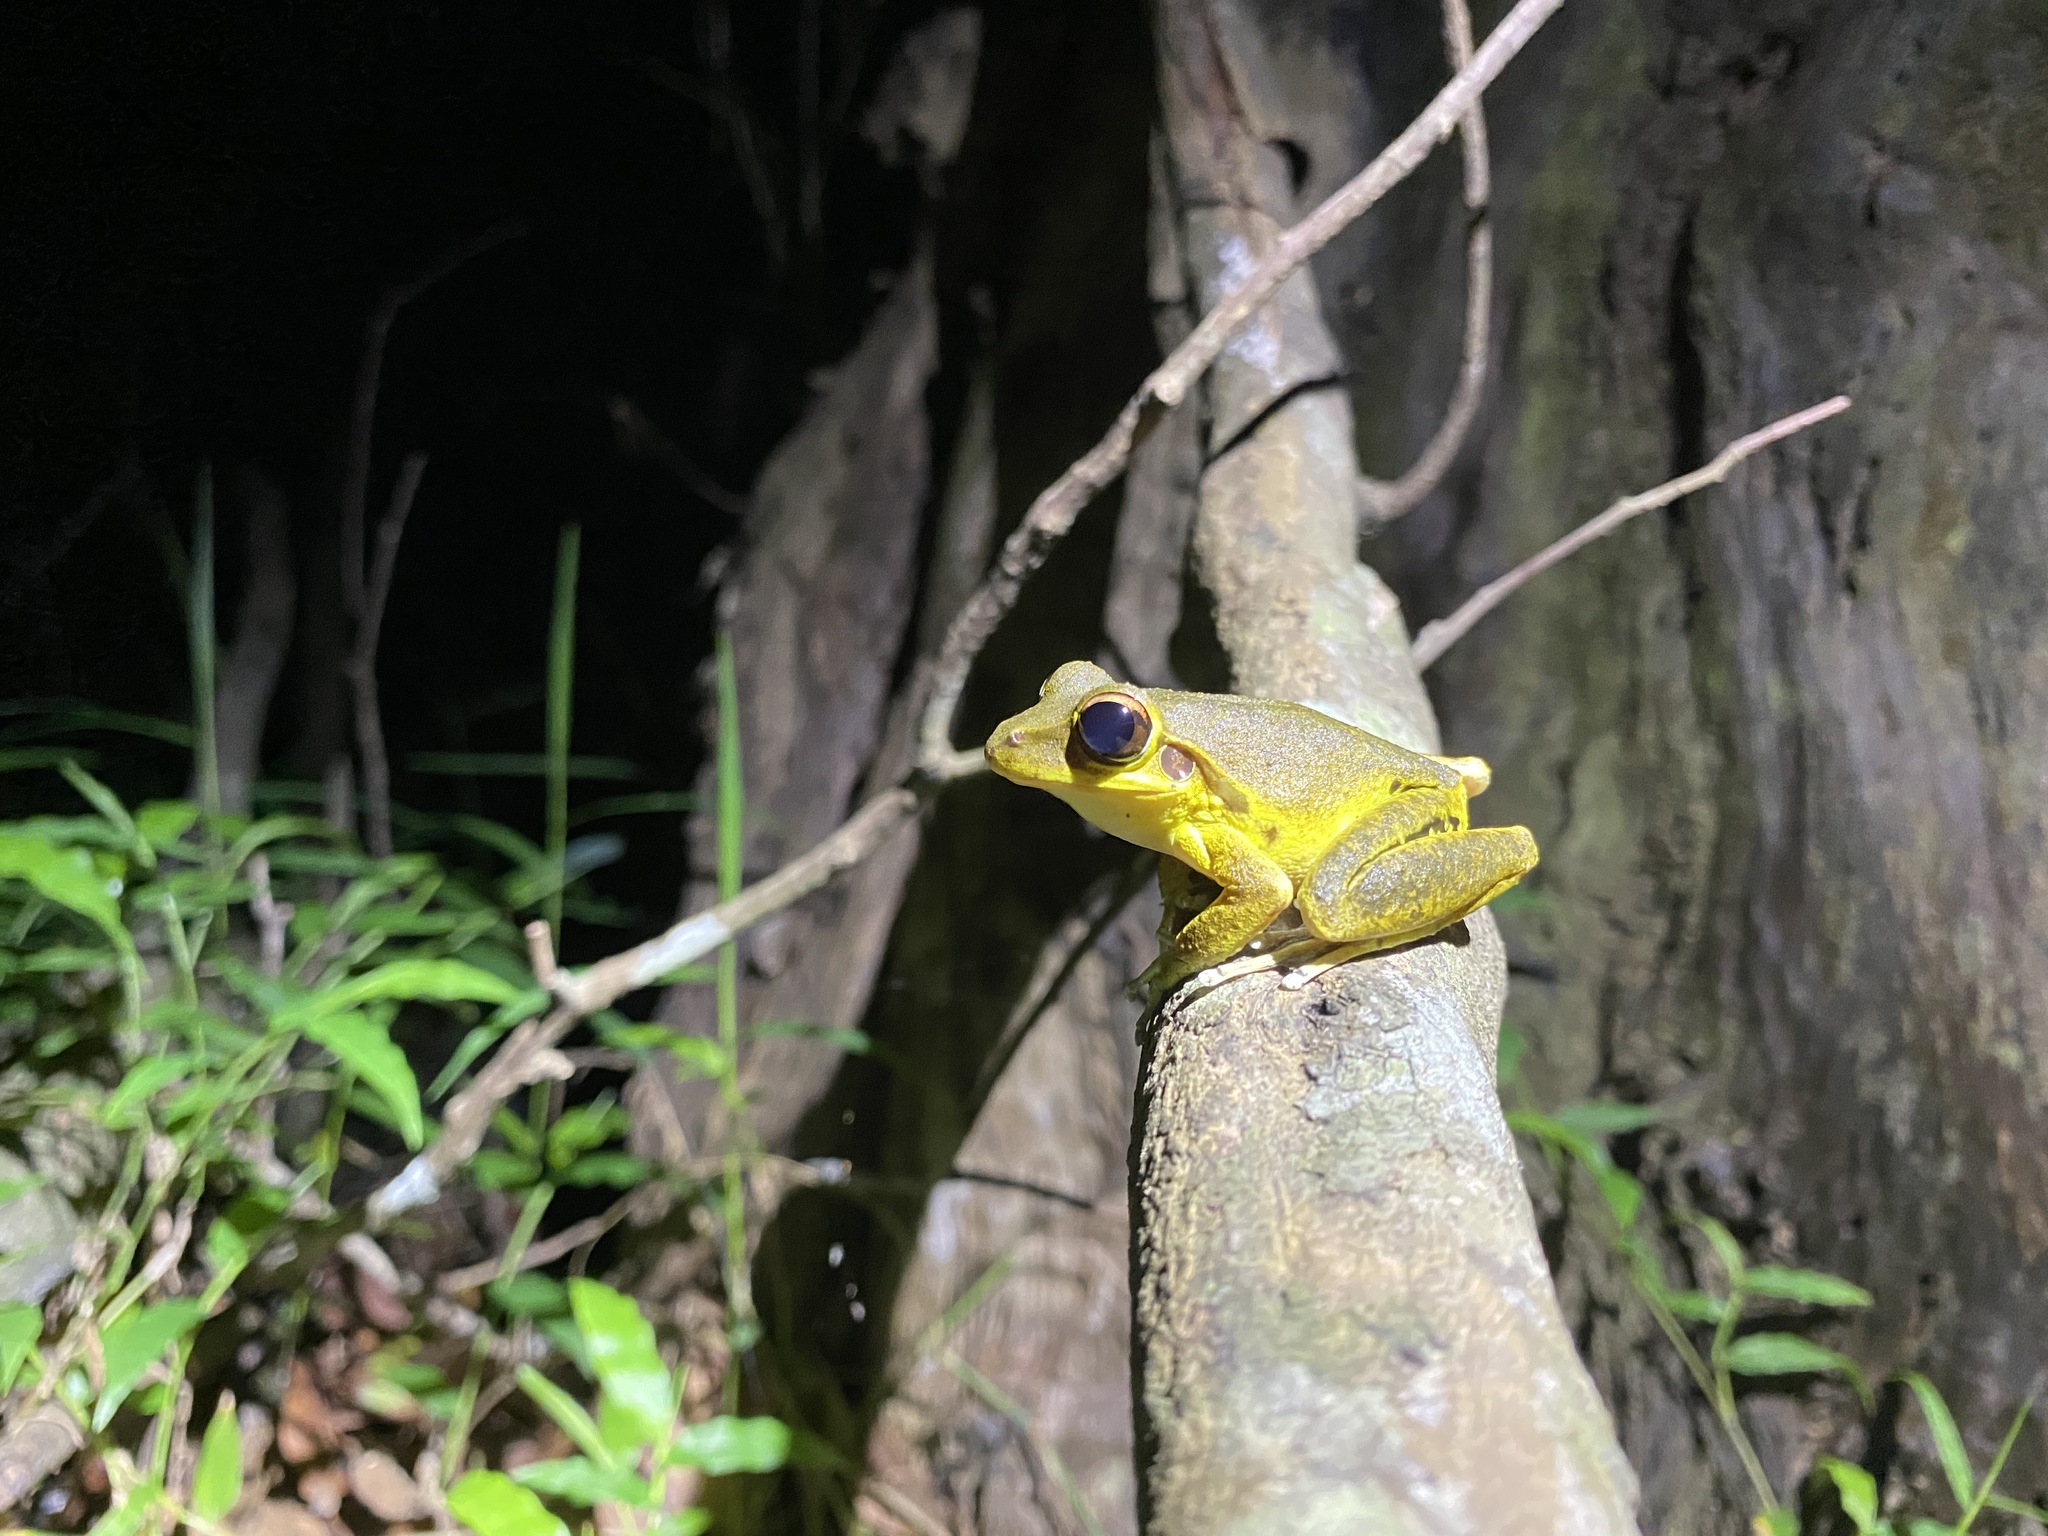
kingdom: Animalia
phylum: Chordata
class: Amphibia
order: Anura
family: Hylidae
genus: Ranoidea
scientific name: Ranoidea
